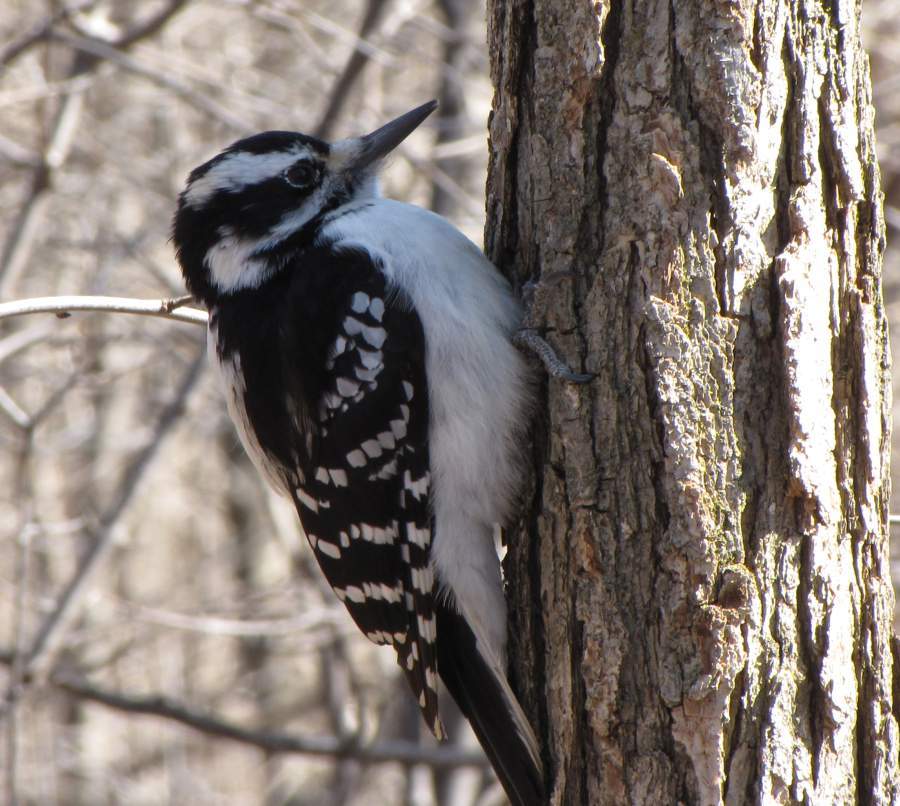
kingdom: Animalia
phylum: Chordata
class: Aves
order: Piciformes
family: Picidae
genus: Leuconotopicus
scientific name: Leuconotopicus villosus
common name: Hairy woodpecker
